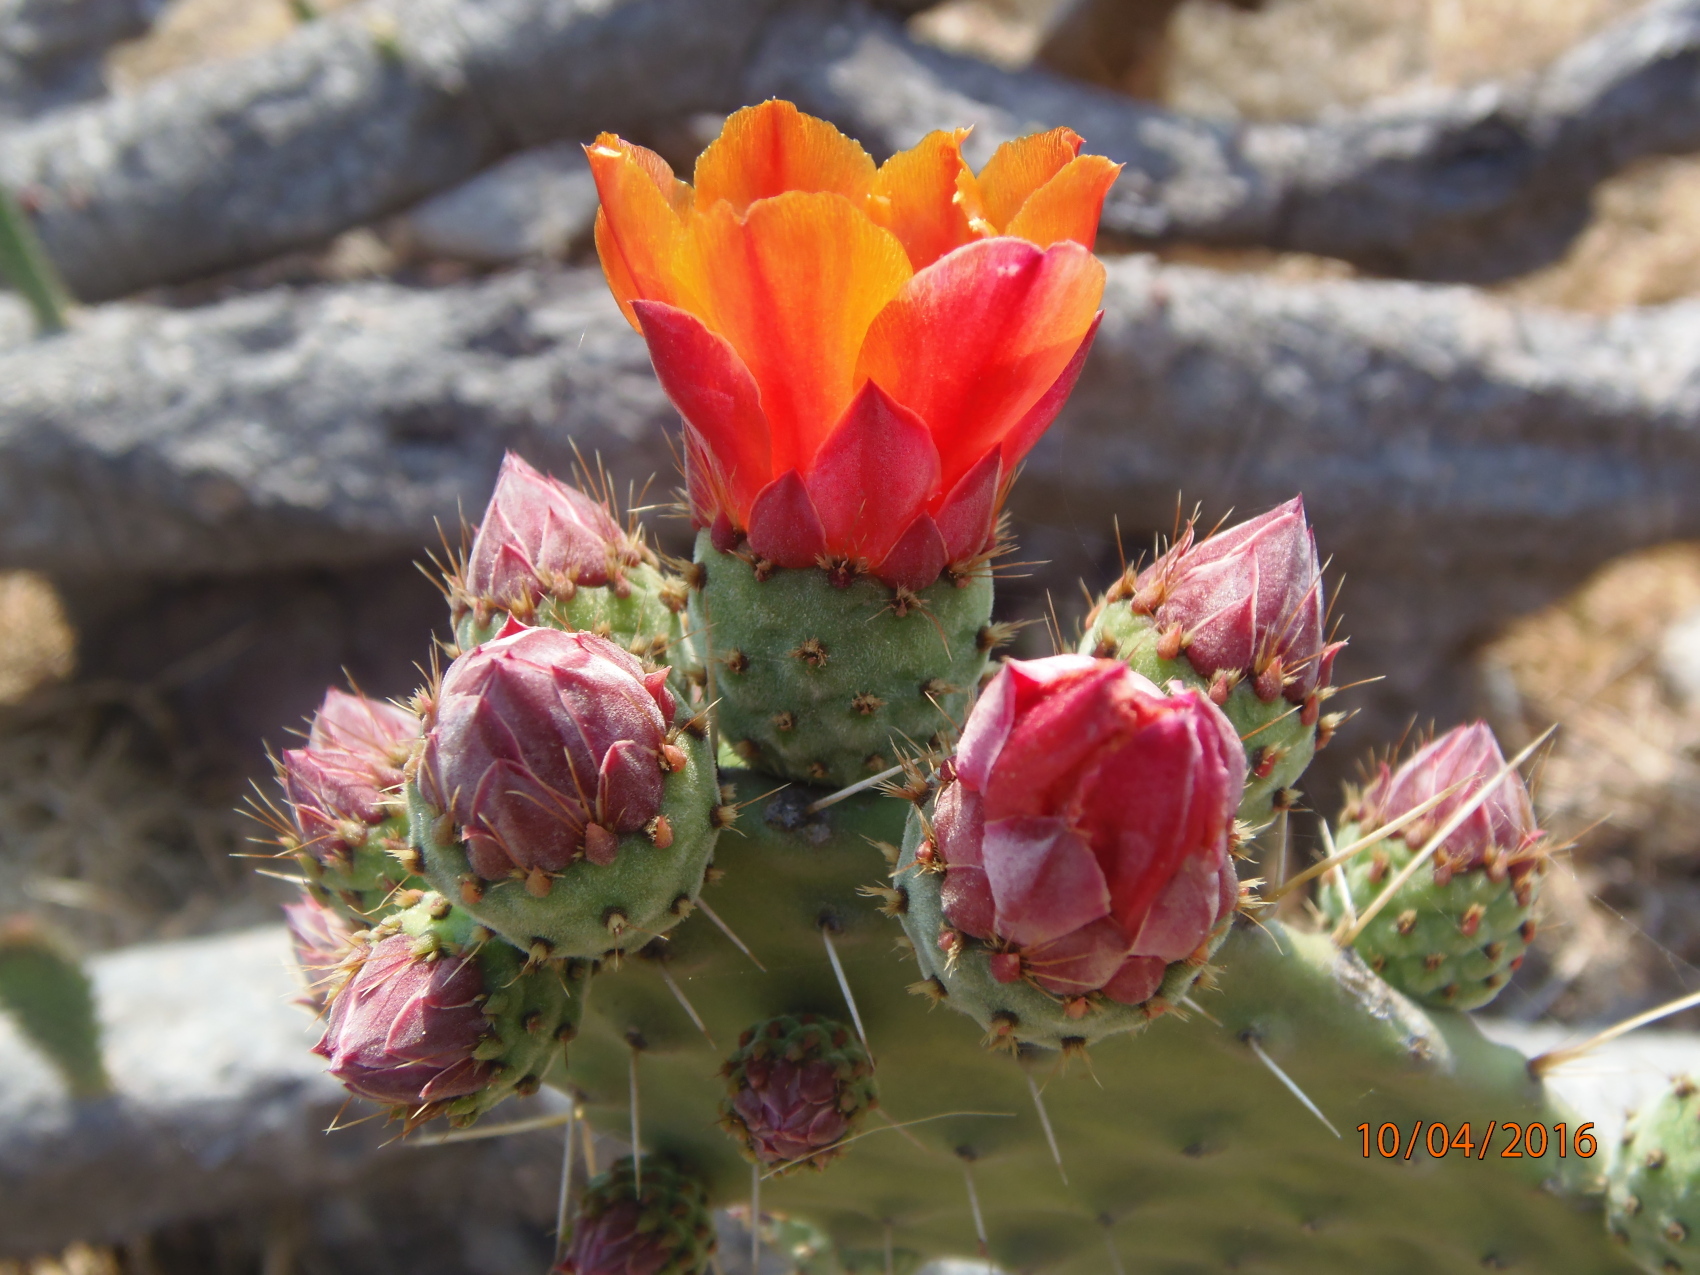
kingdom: Plantae
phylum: Tracheophyta
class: Magnoliopsida
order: Caryophyllales
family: Cactaceae
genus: Opuntia
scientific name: Opuntia tomentosa
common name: Woollyjoint pricklypear
